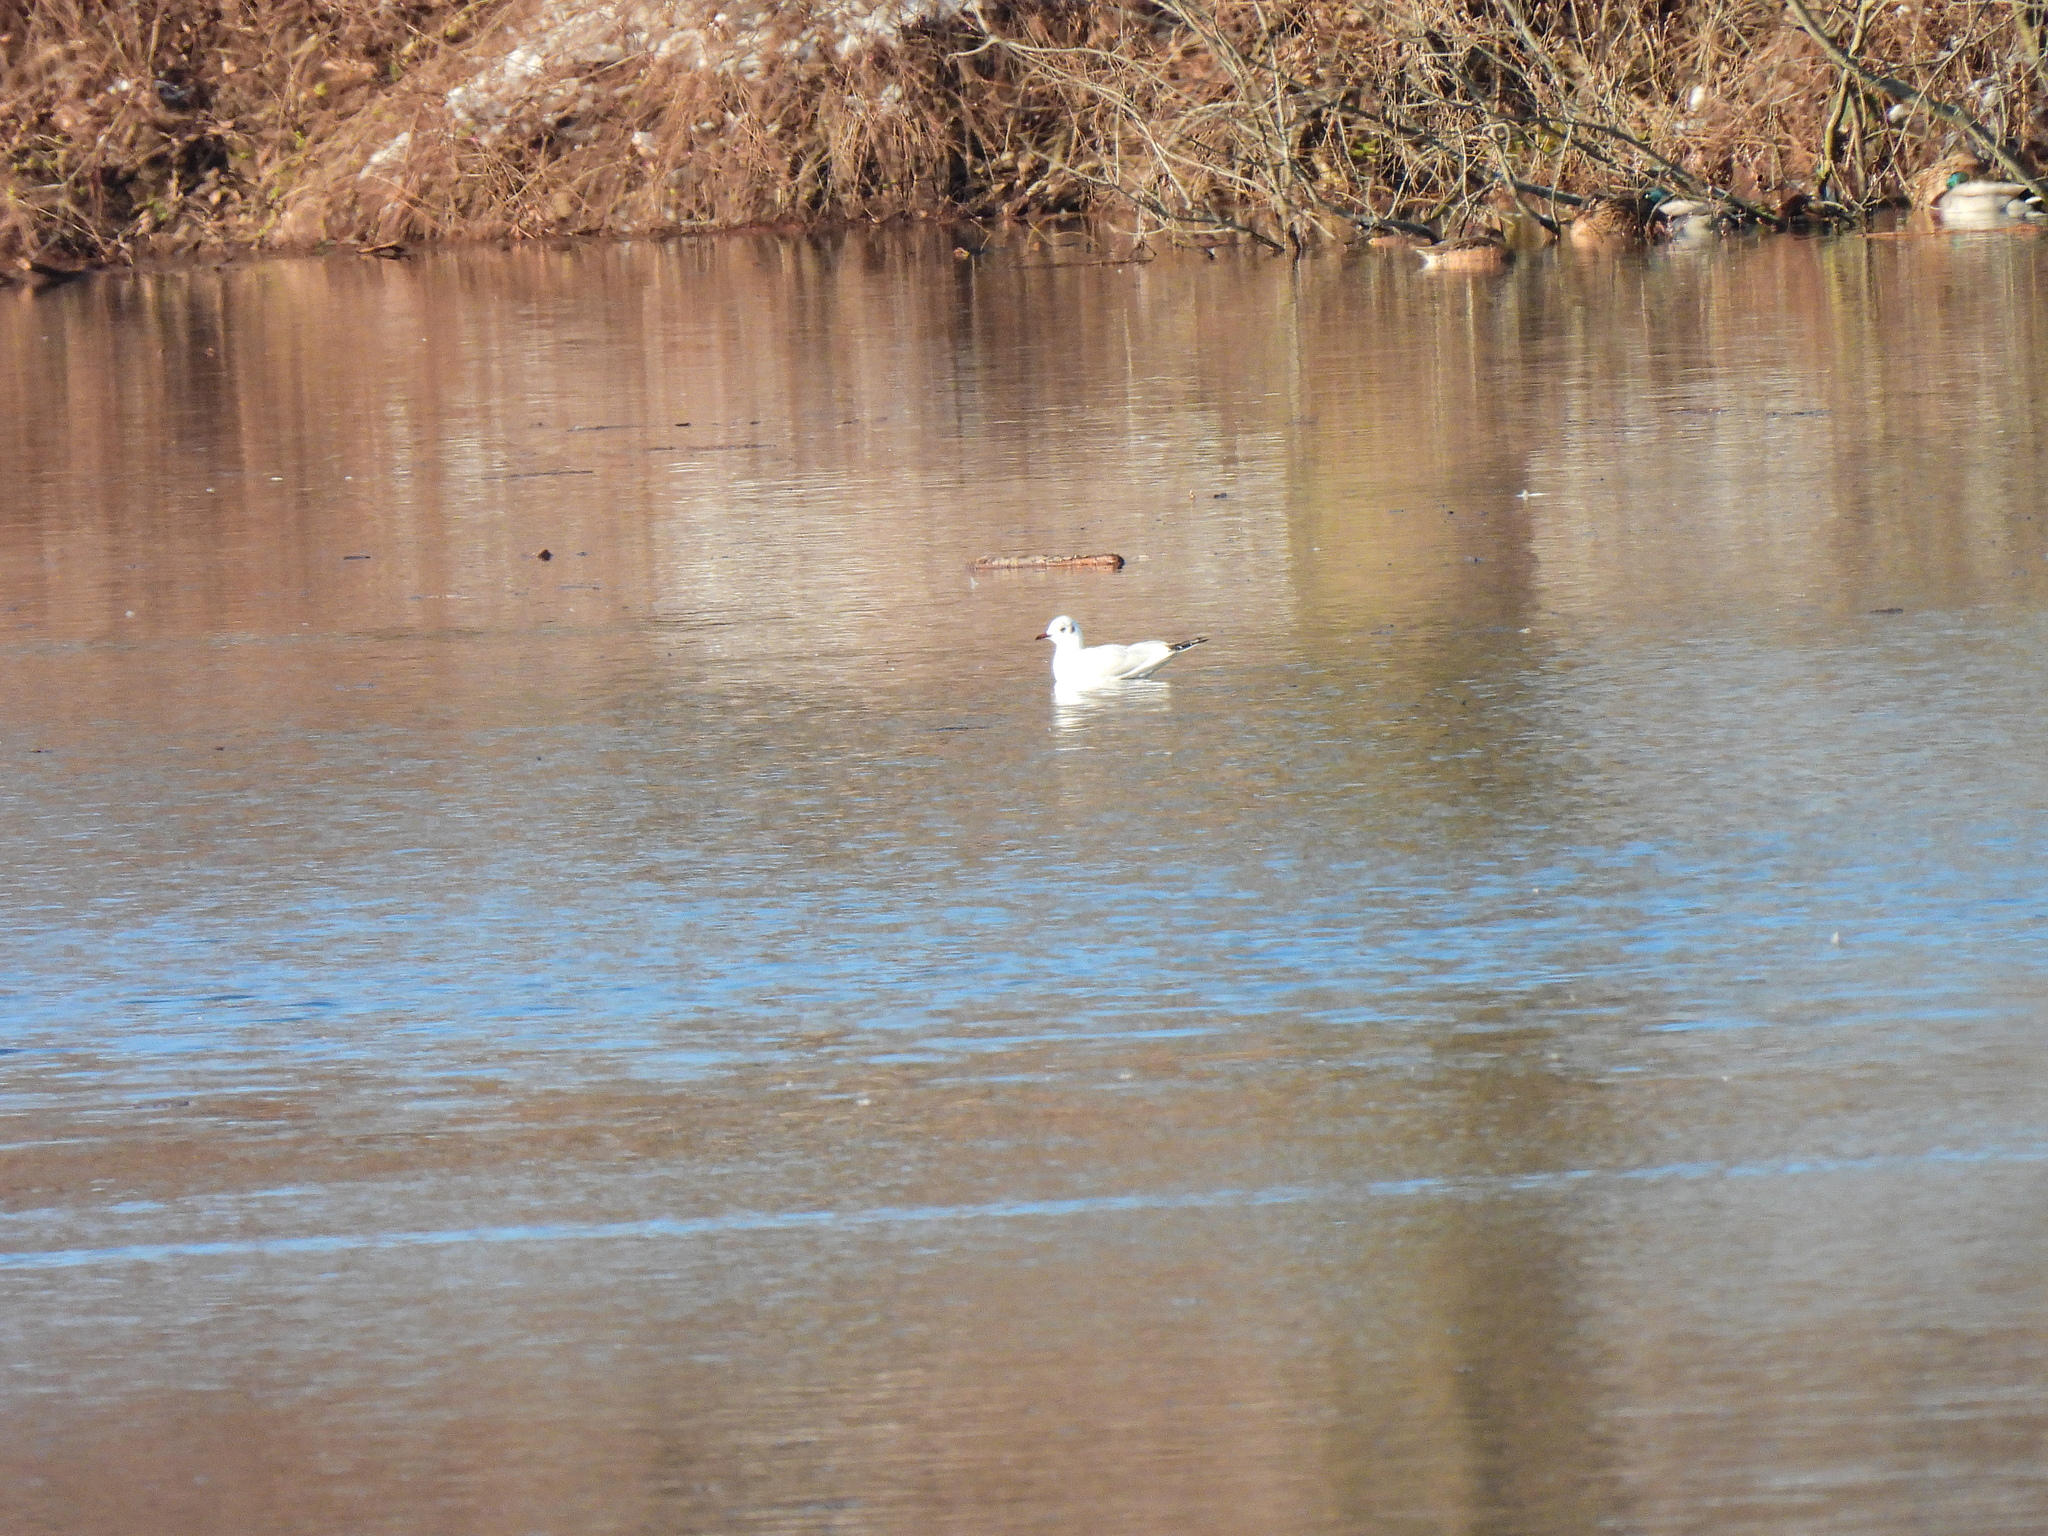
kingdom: Animalia
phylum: Chordata
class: Aves
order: Charadriiformes
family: Laridae
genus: Chroicocephalus
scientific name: Chroicocephalus ridibundus
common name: Black-headed gull
